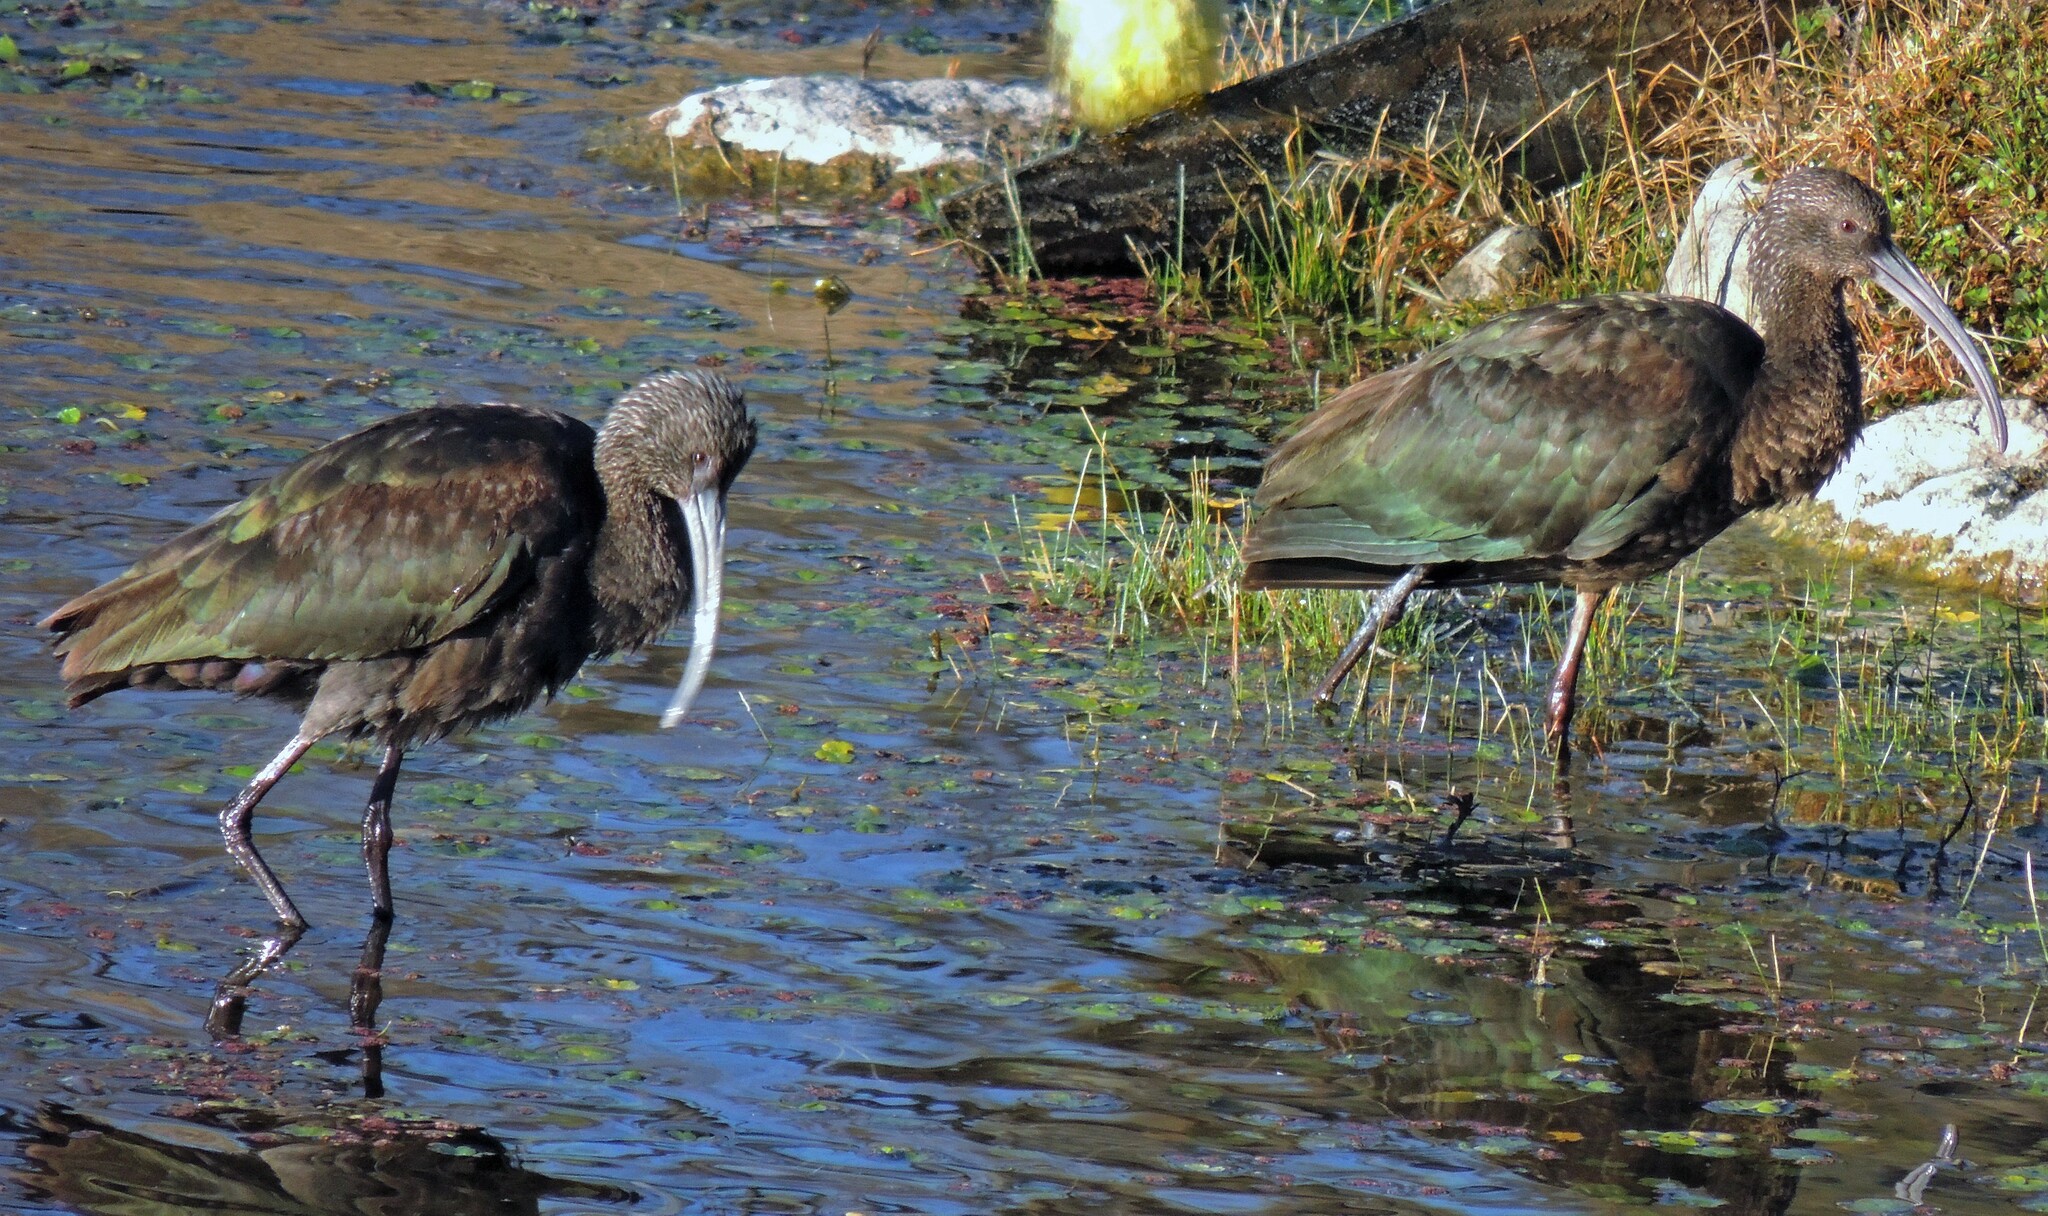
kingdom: Animalia
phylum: Chordata
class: Aves
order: Pelecaniformes
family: Threskiornithidae
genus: Plegadis
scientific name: Plegadis chihi
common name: White-faced ibis
